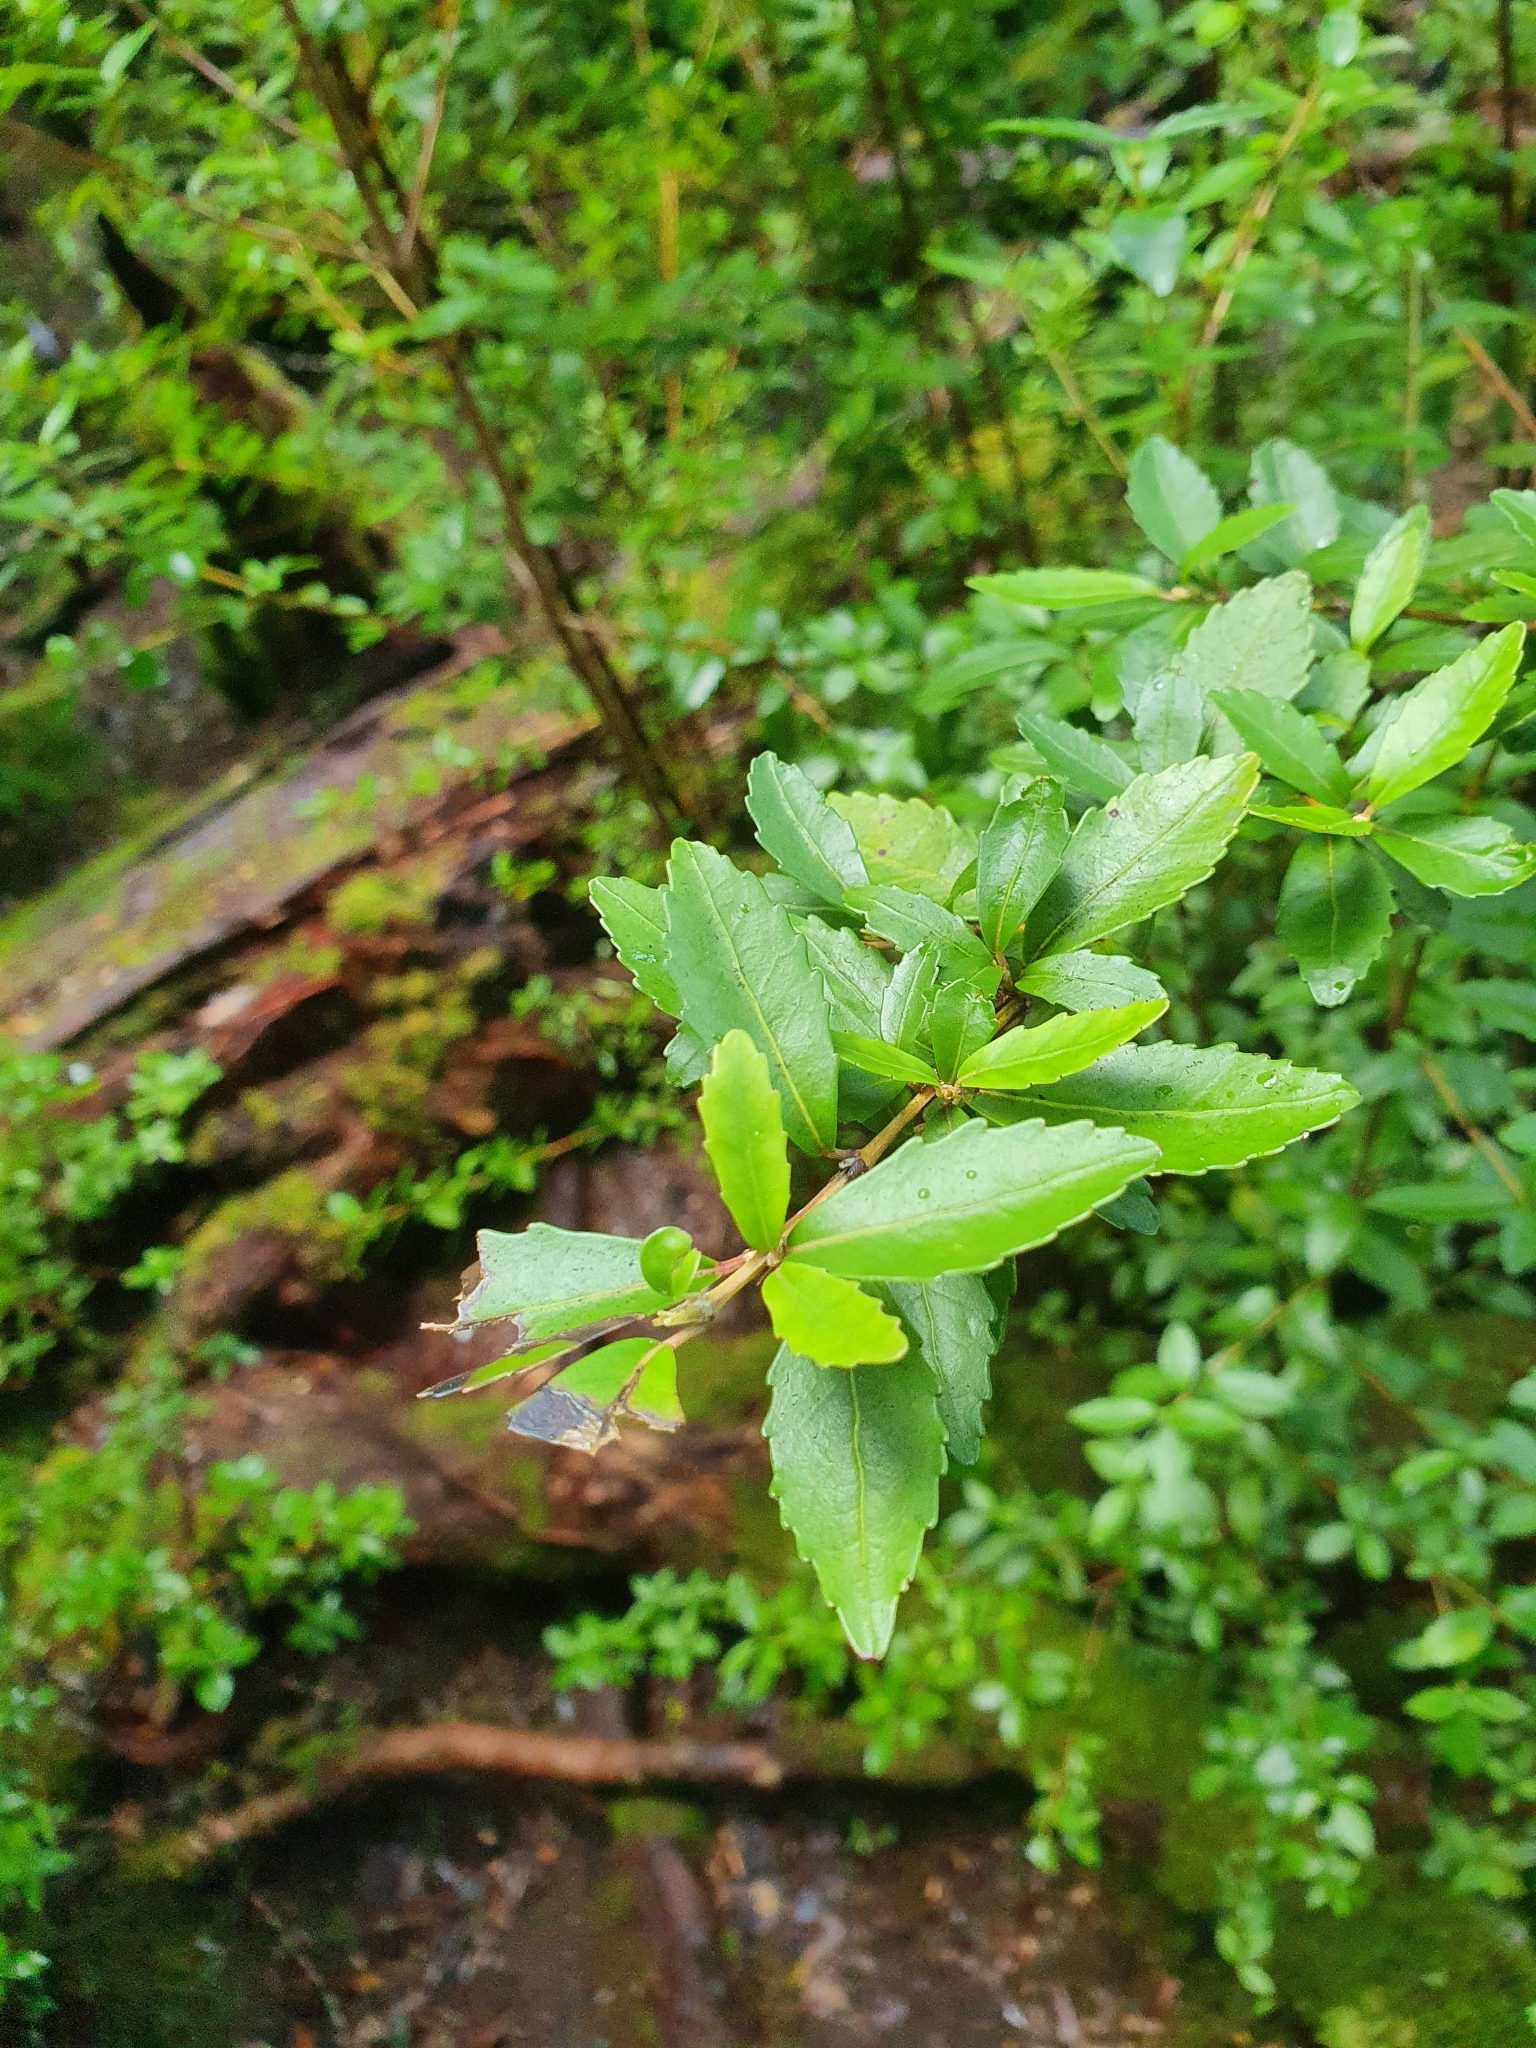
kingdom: Plantae
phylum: Tracheophyta
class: Magnoliopsida
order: Oxalidales
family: Cunoniaceae
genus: Anodopetalum
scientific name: Anodopetalum biglandulosum
